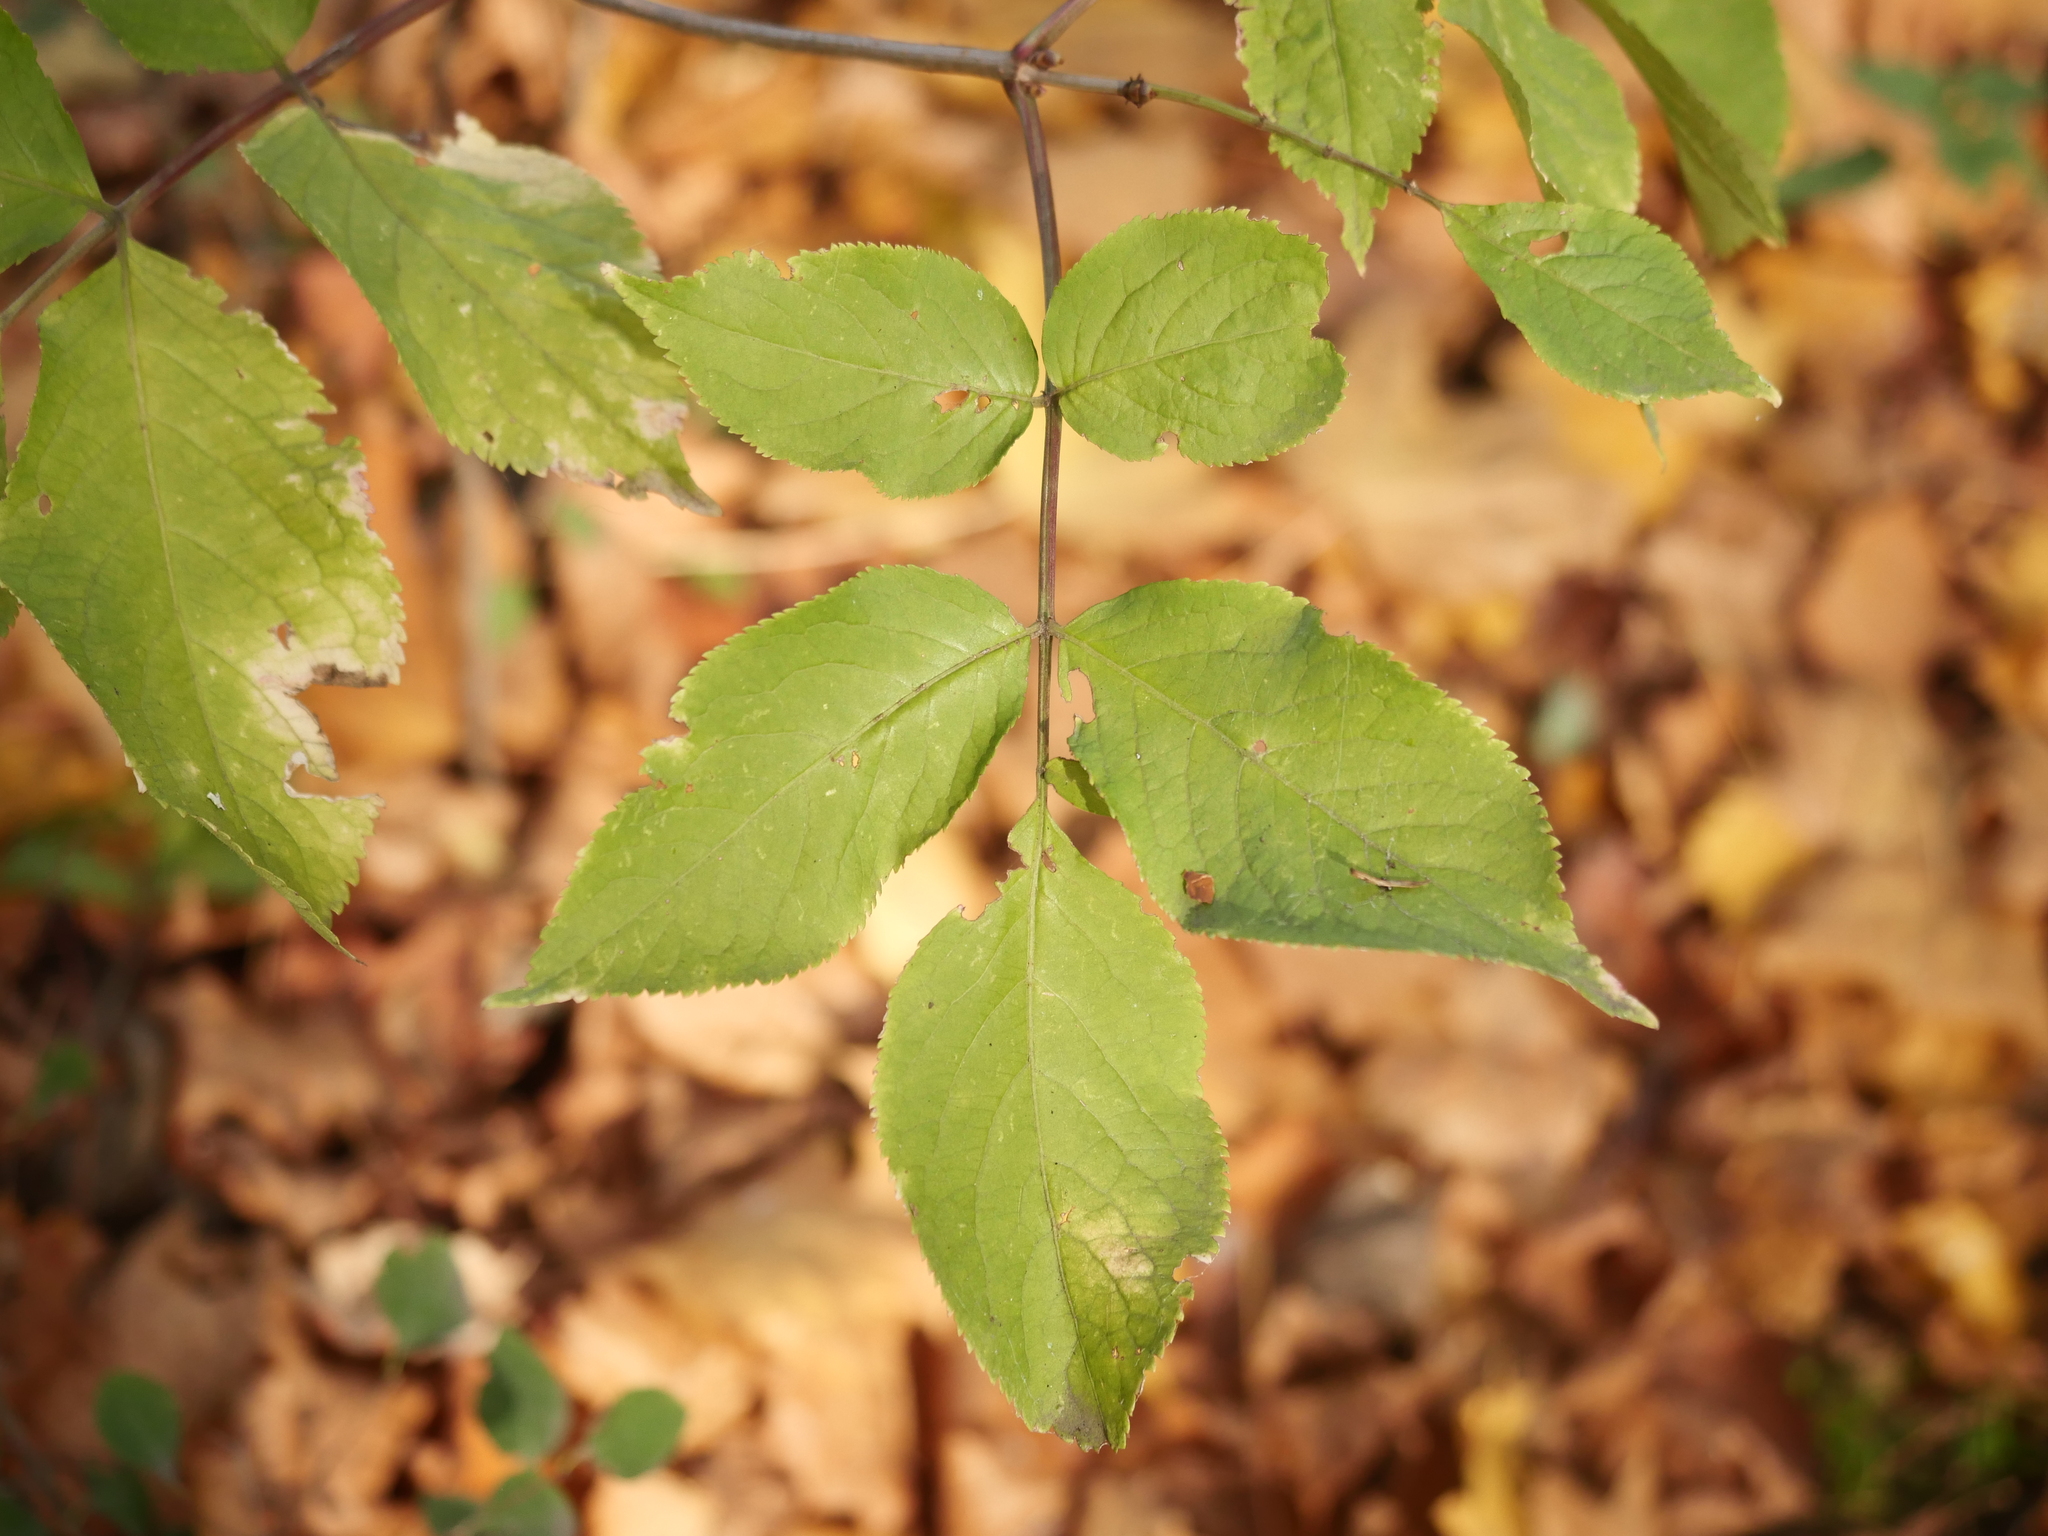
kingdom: Plantae
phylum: Tracheophyta
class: Magnoliopsida
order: Dipsacales
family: Viburnaceae
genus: Sambucus
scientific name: Sambucus nigra
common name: Elder
